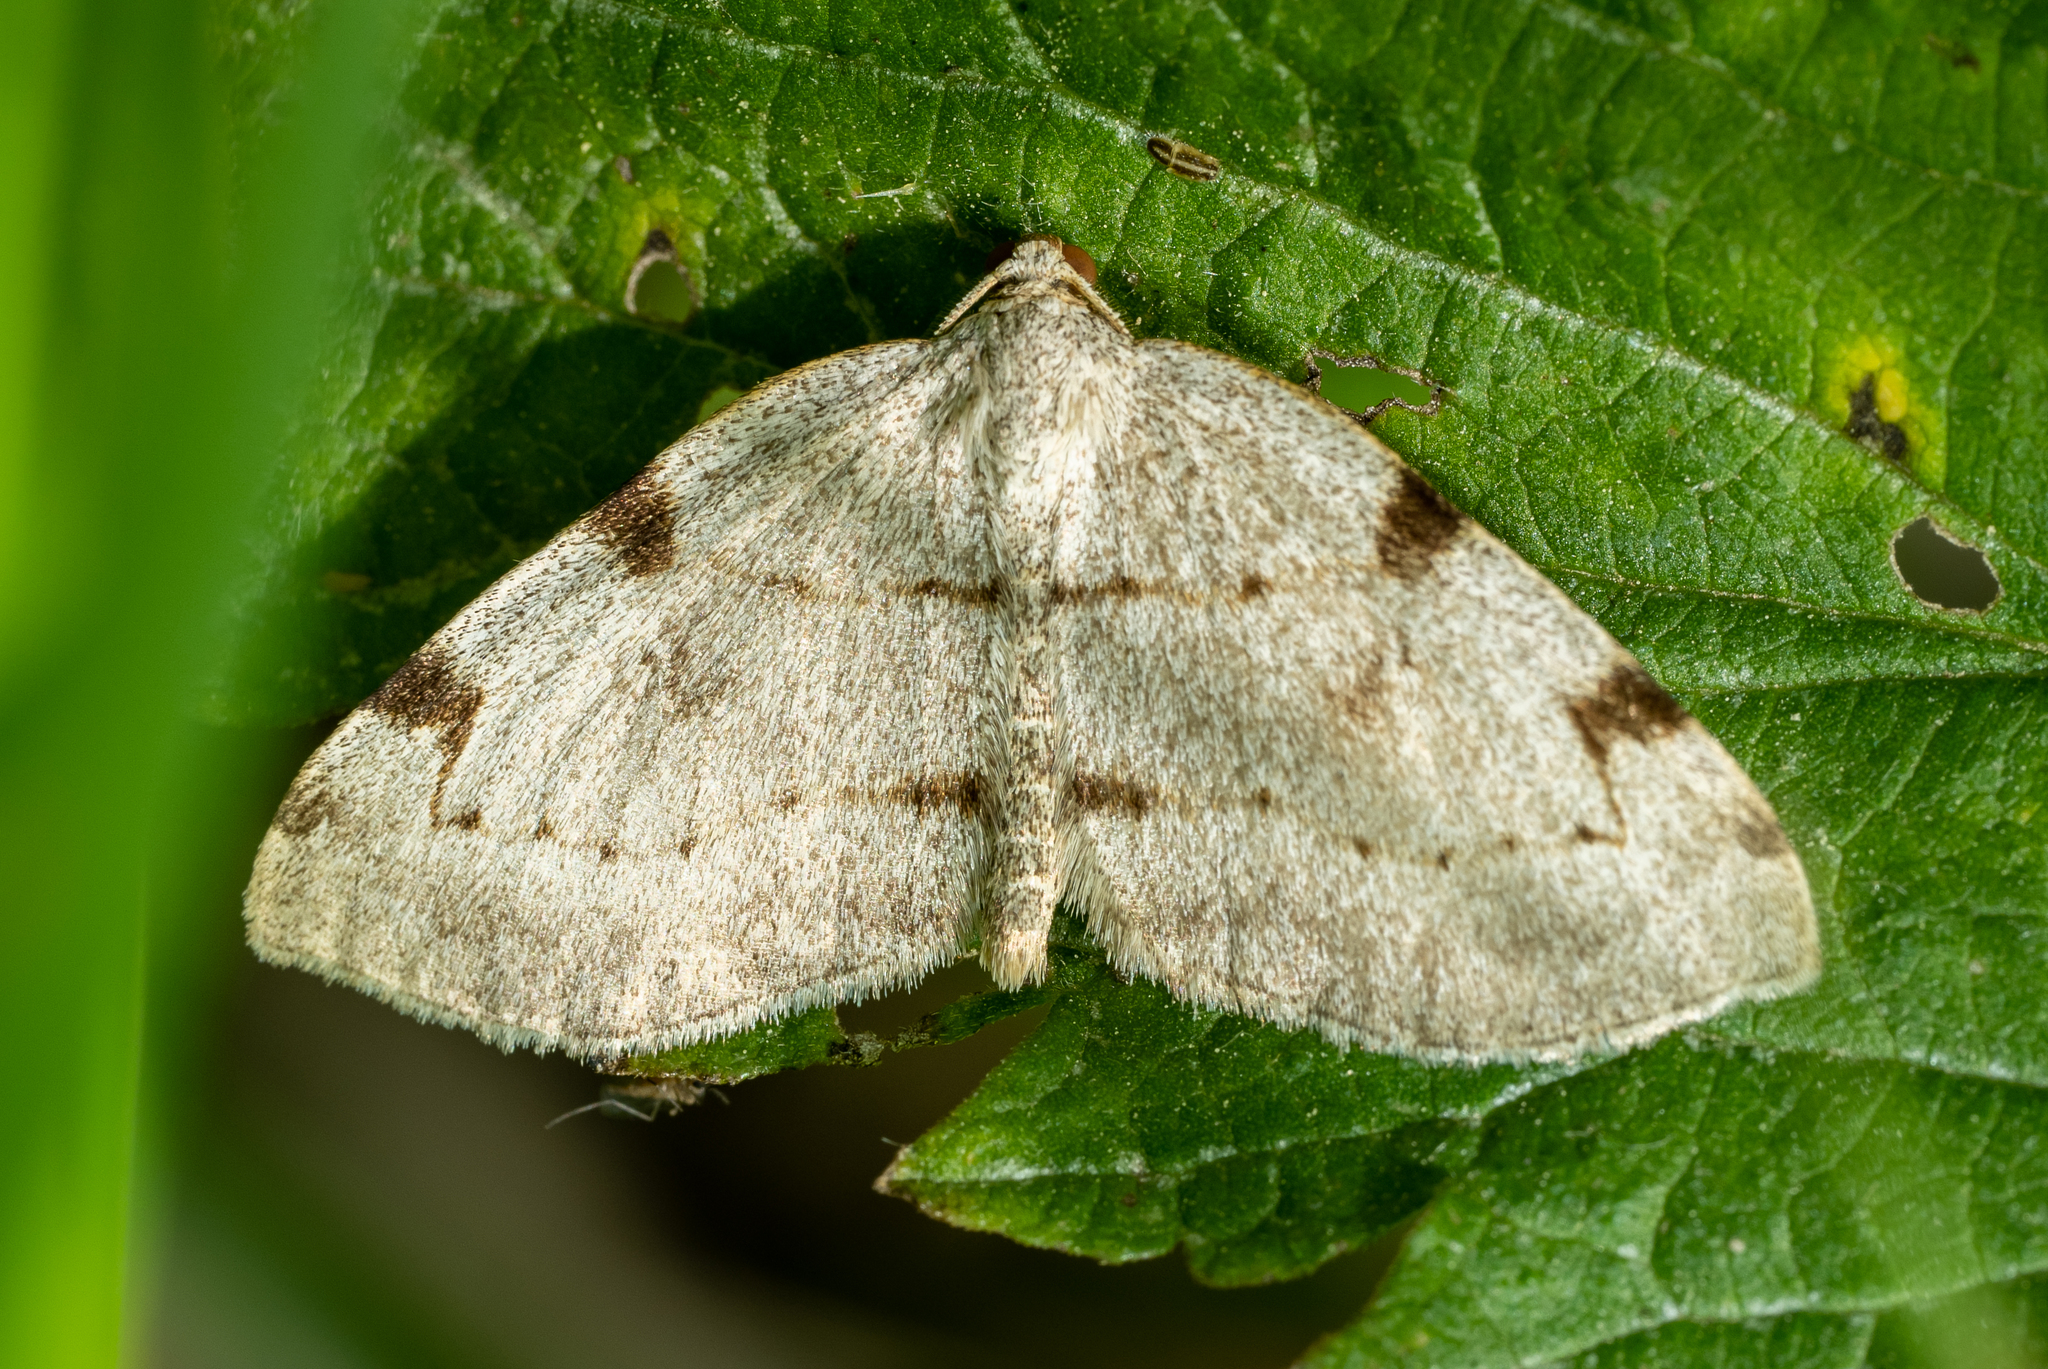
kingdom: Animalia
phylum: Arthropoda
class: Insecta
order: Lepidoptera
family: Geometridae
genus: Heterophleps
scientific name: Heterophleps refusaria
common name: Three-patched bigwing
